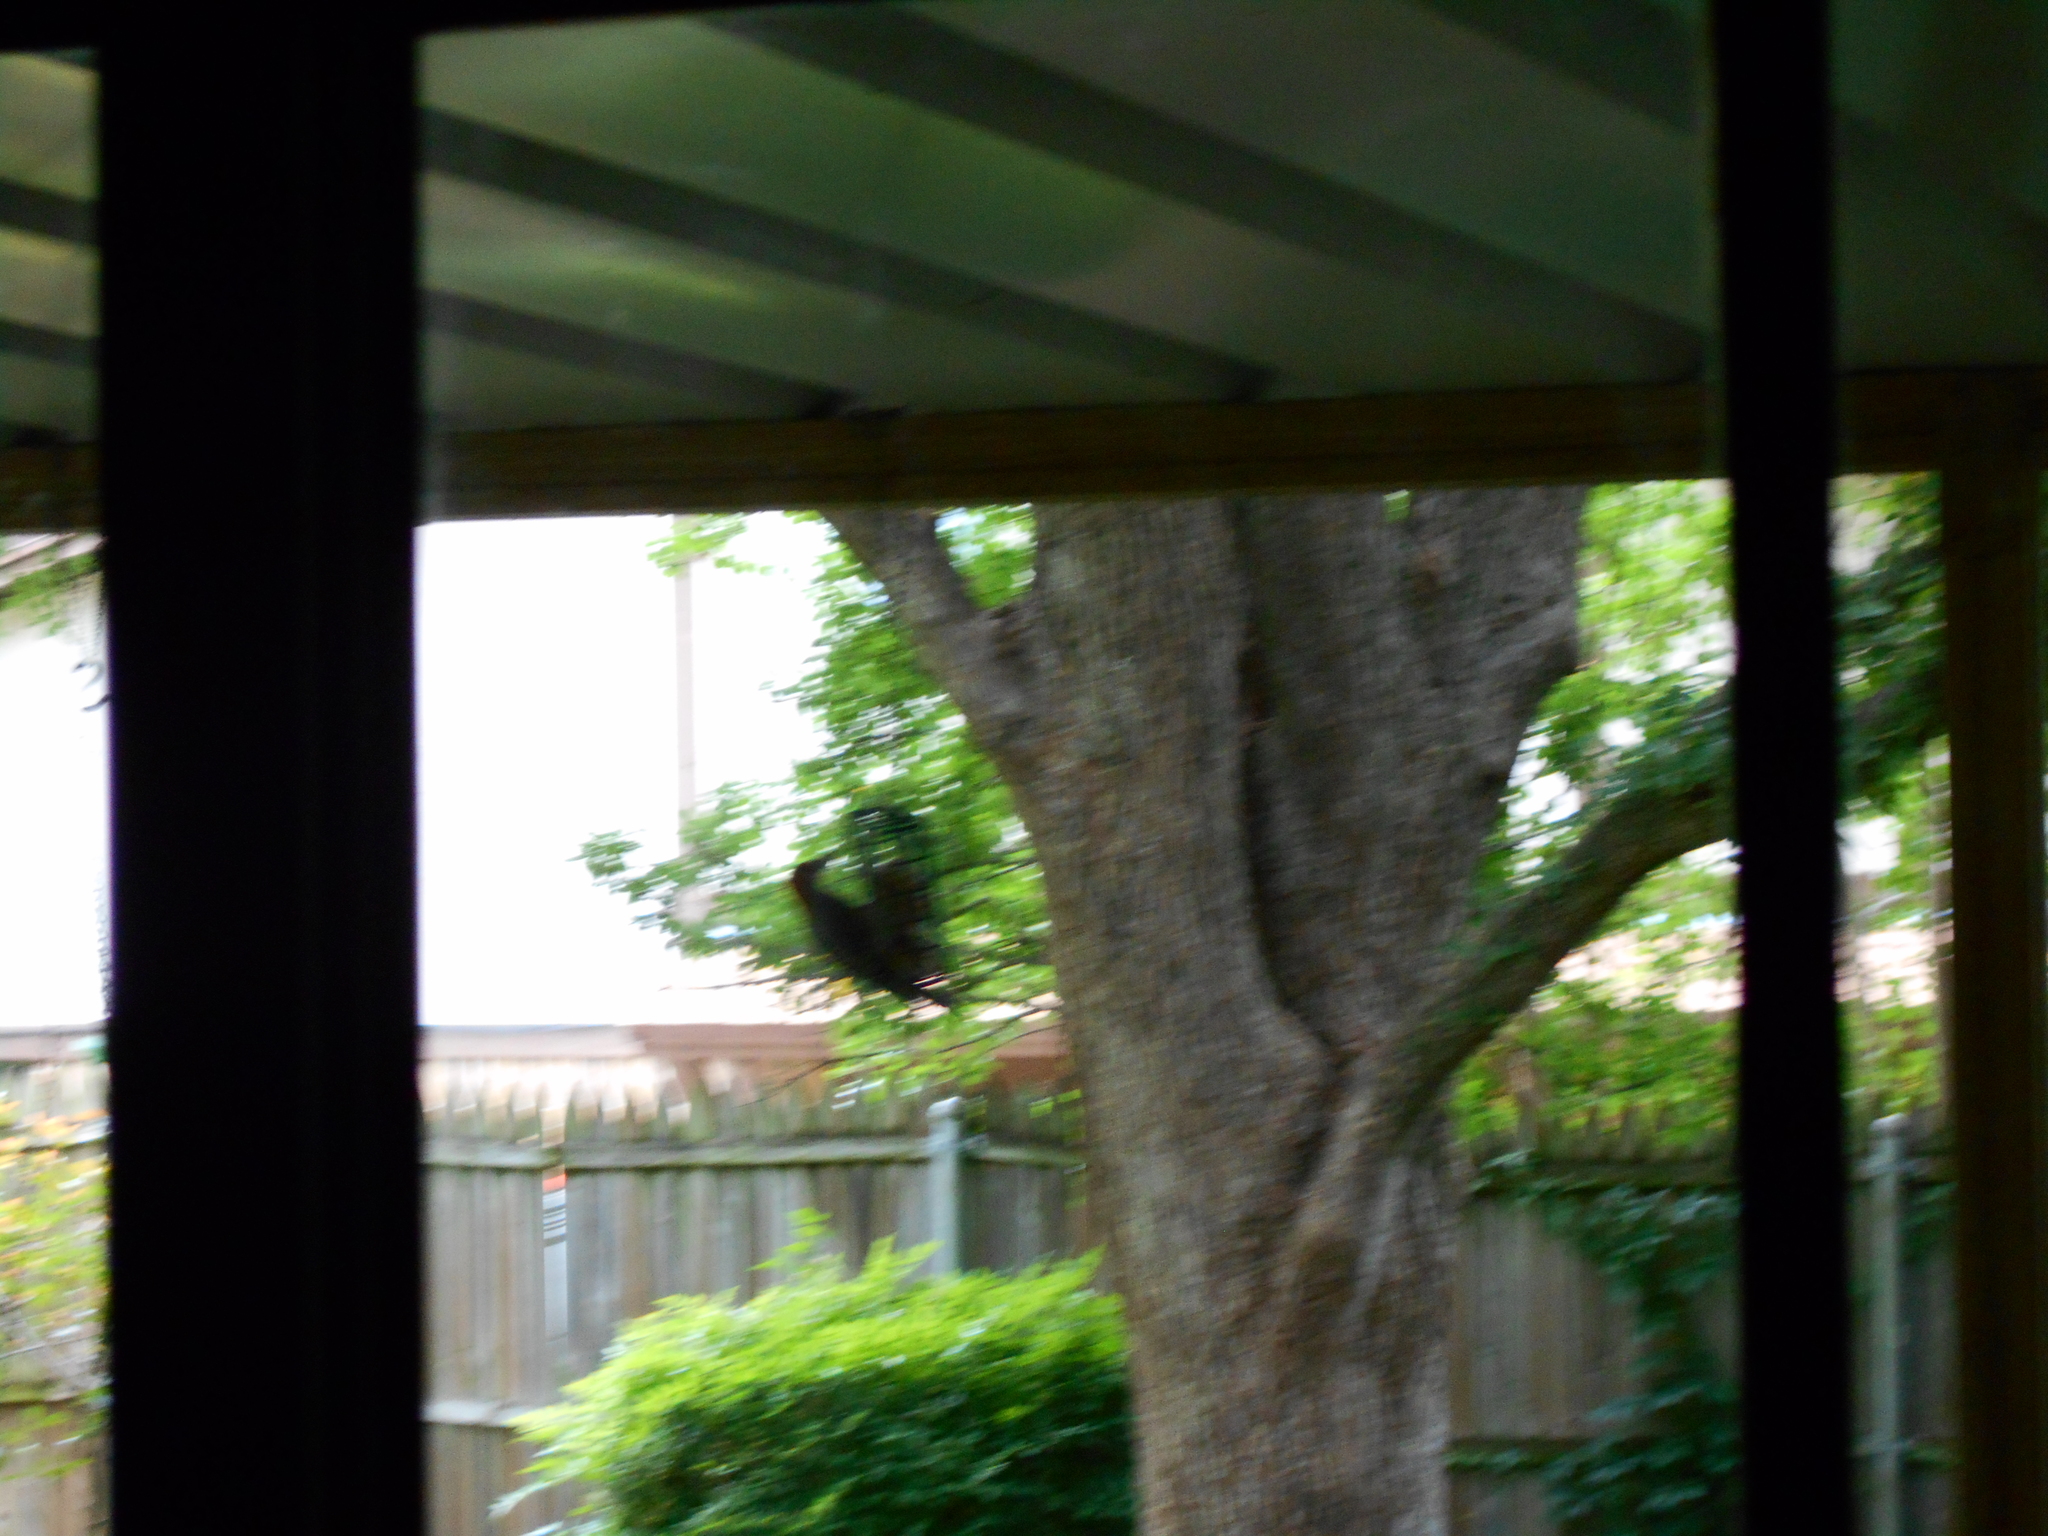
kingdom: Animalia
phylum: Chordata
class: Aves
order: Piciformes
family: Picidae
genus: Melanerpes
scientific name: Melanerpes carolinus
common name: Red-bellied woodpecker
